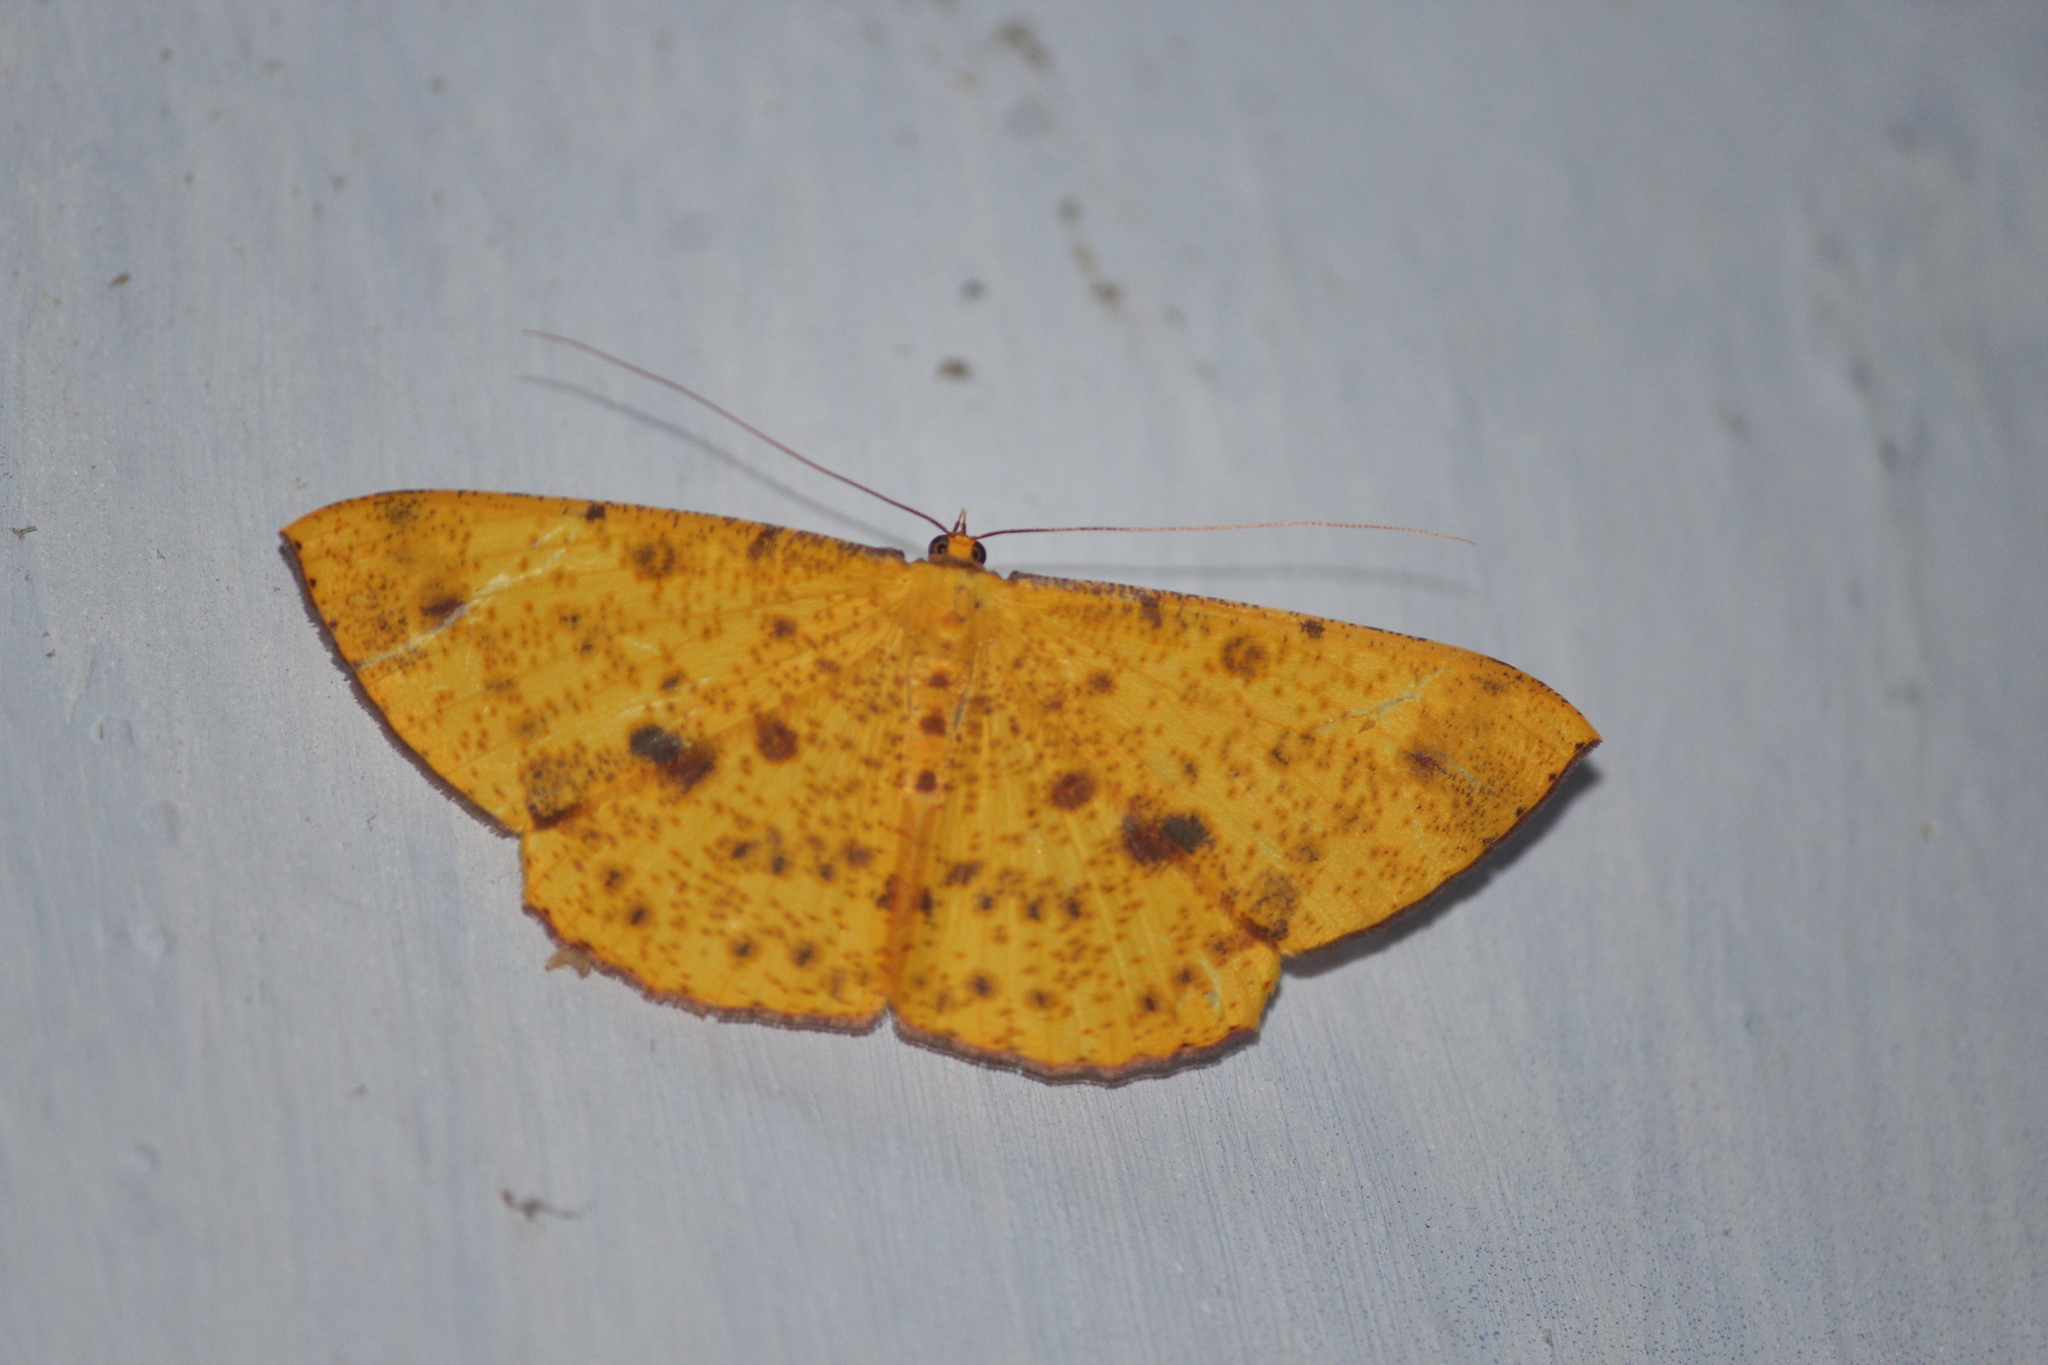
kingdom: Animalia
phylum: Arthropoda
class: Insecta
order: Lepidoptera
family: Geometridae
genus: Eumelea
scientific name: Eumelea ludovicata
